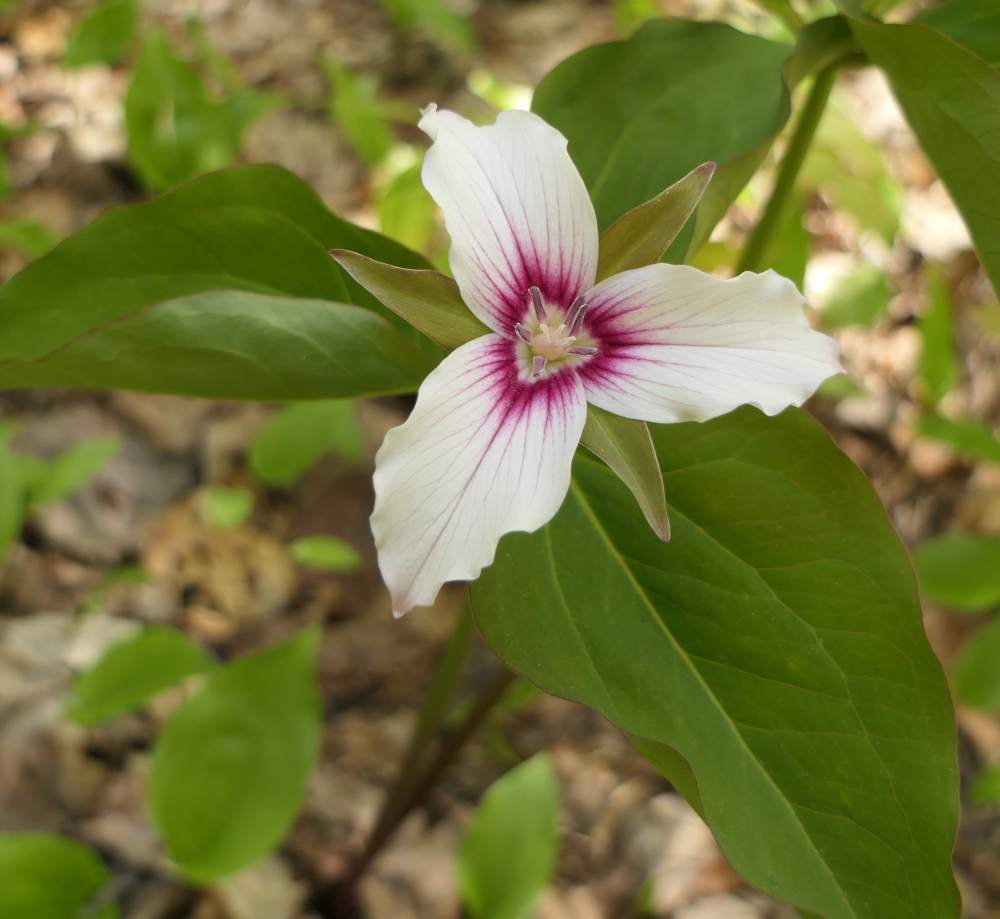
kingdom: Plantae
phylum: Tracheophyta
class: Liliopsida
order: Liliales
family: Melanthiaceae
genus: Trillium
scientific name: Trillium undulatum
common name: Paint trillium
